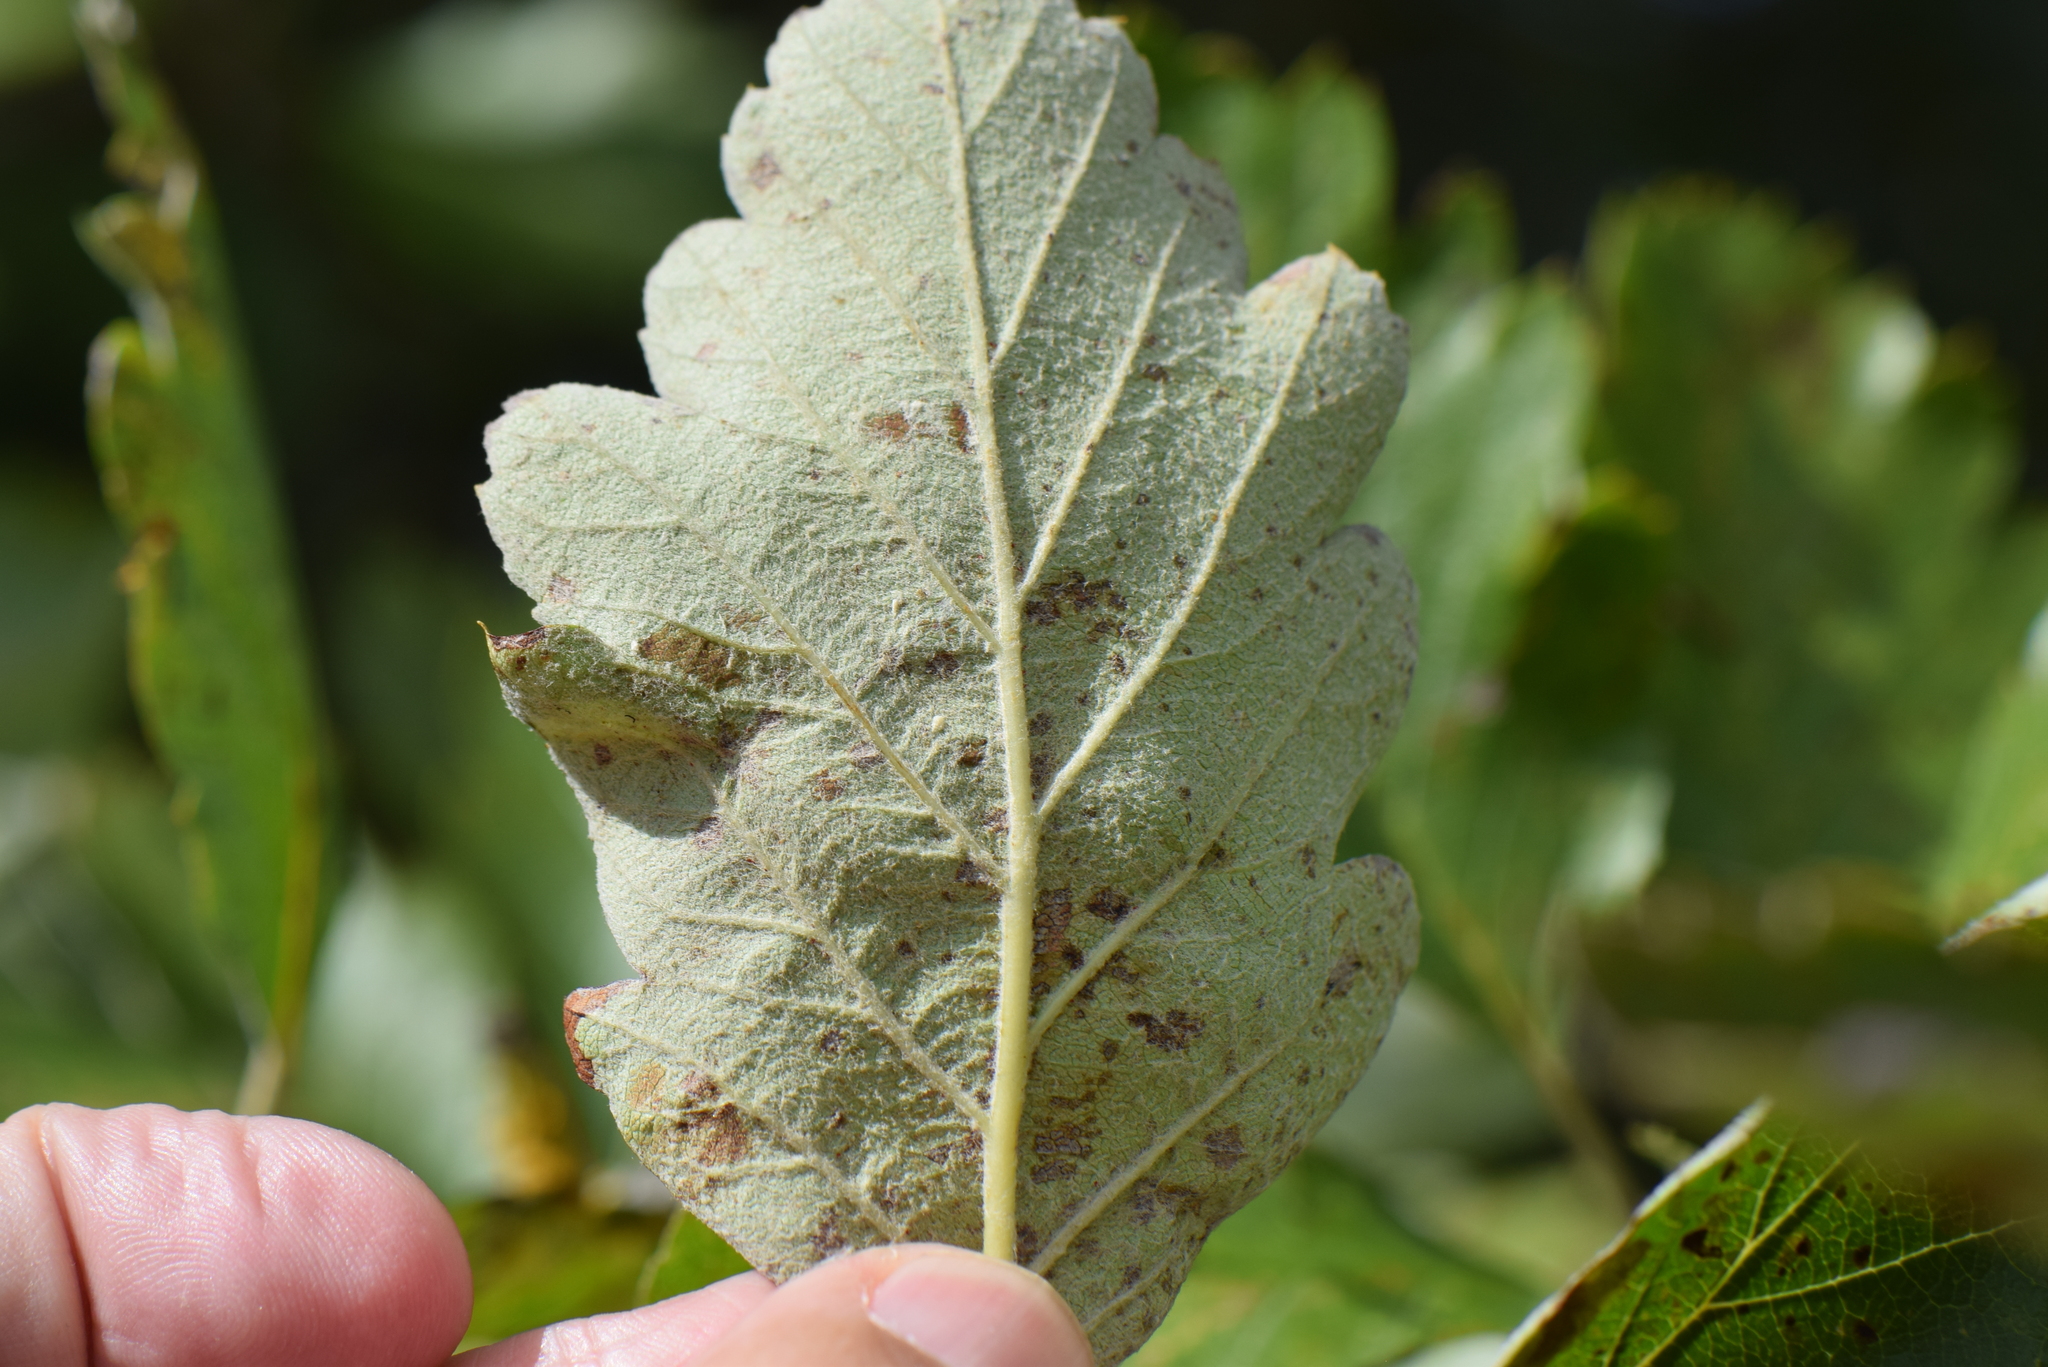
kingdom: Plantae
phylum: Tracheophyta
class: Magnoliopsida
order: Rosales
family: Rosaceae
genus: Scandosorbus
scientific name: Scandosorbus intermedia
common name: Swedish whitebeam
